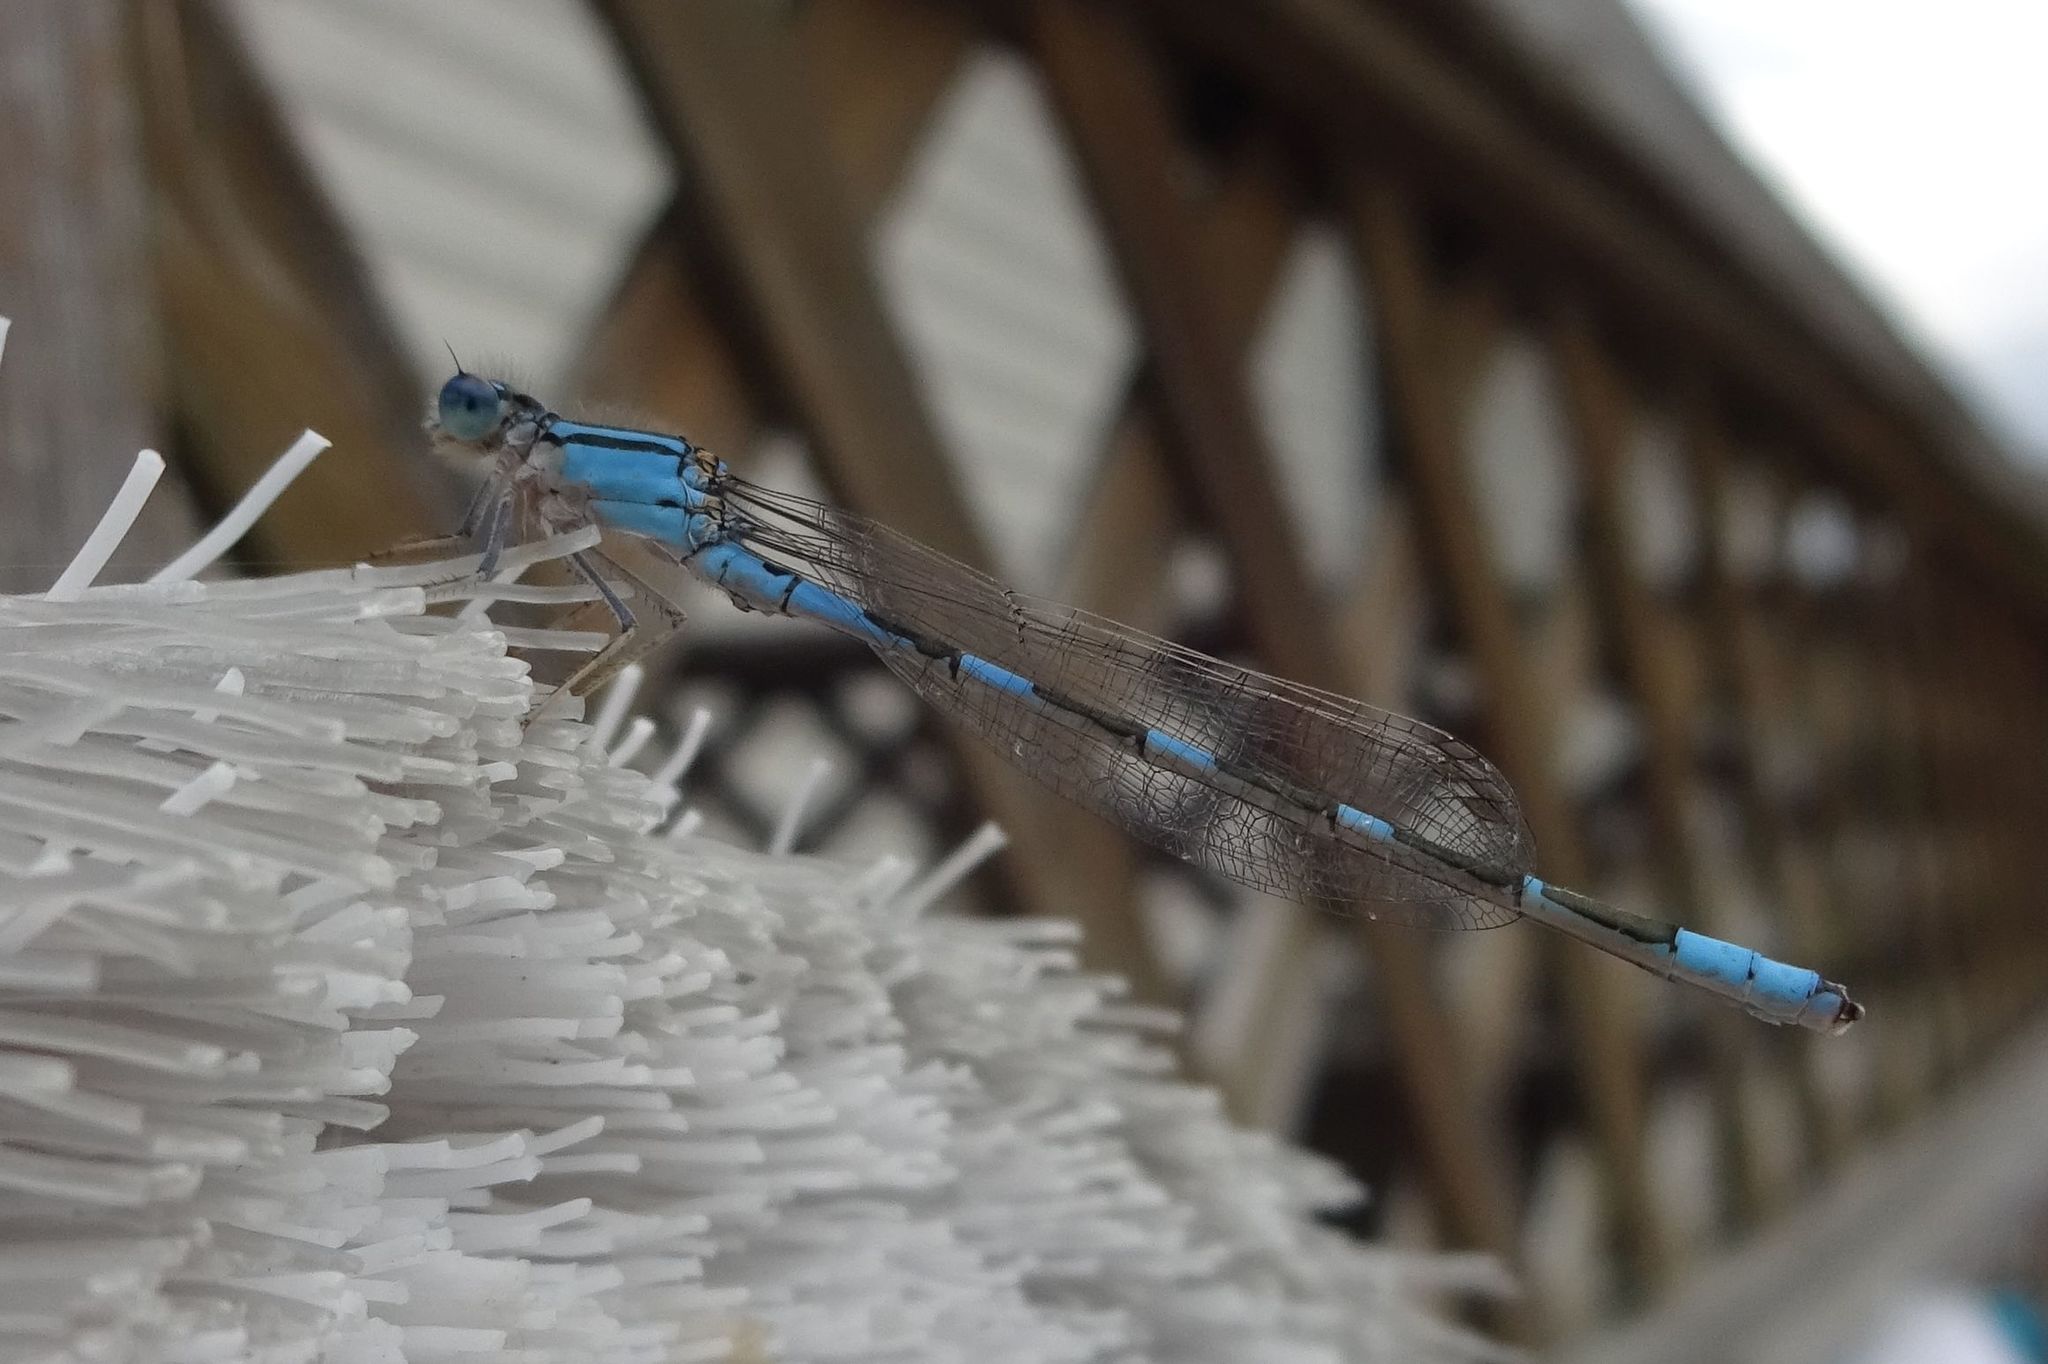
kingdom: Animalia
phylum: Arthropoda
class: Insecta
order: Odonata
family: Coenagrionidae
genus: Enallagma
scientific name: Enallagma carunculatum
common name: Tule bluet
